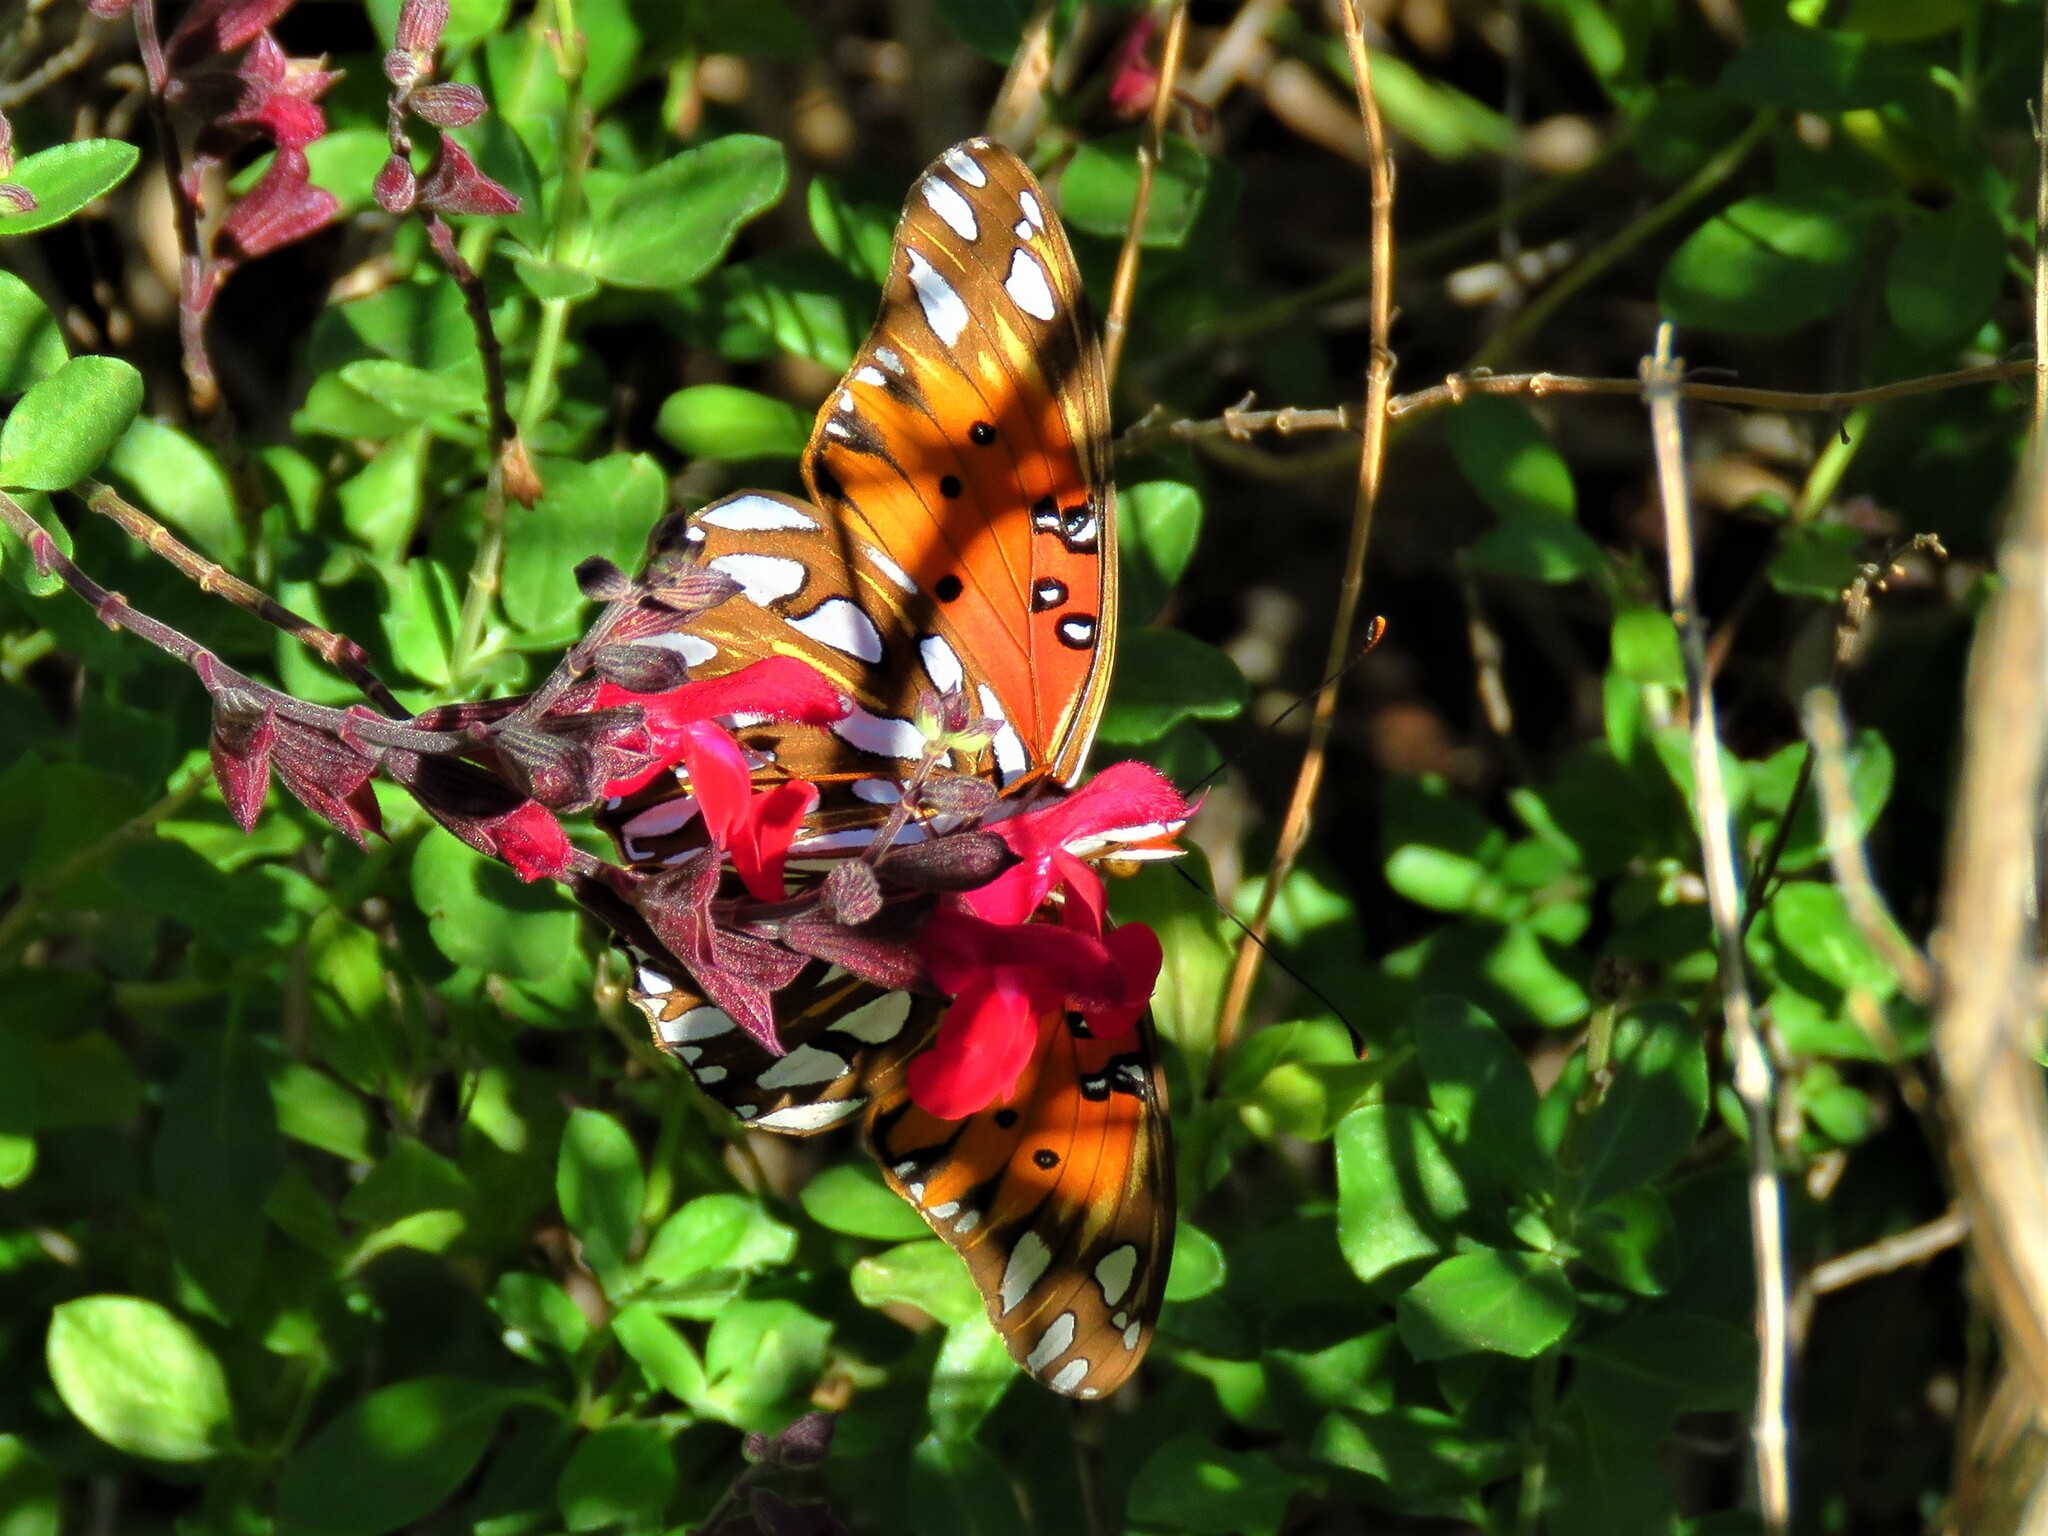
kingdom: Animalia
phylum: Arthropoda
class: Insecta
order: Lepidoptera
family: Nymphalidae
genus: Dione
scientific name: Dione vanillae
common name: Gulf fritillary
